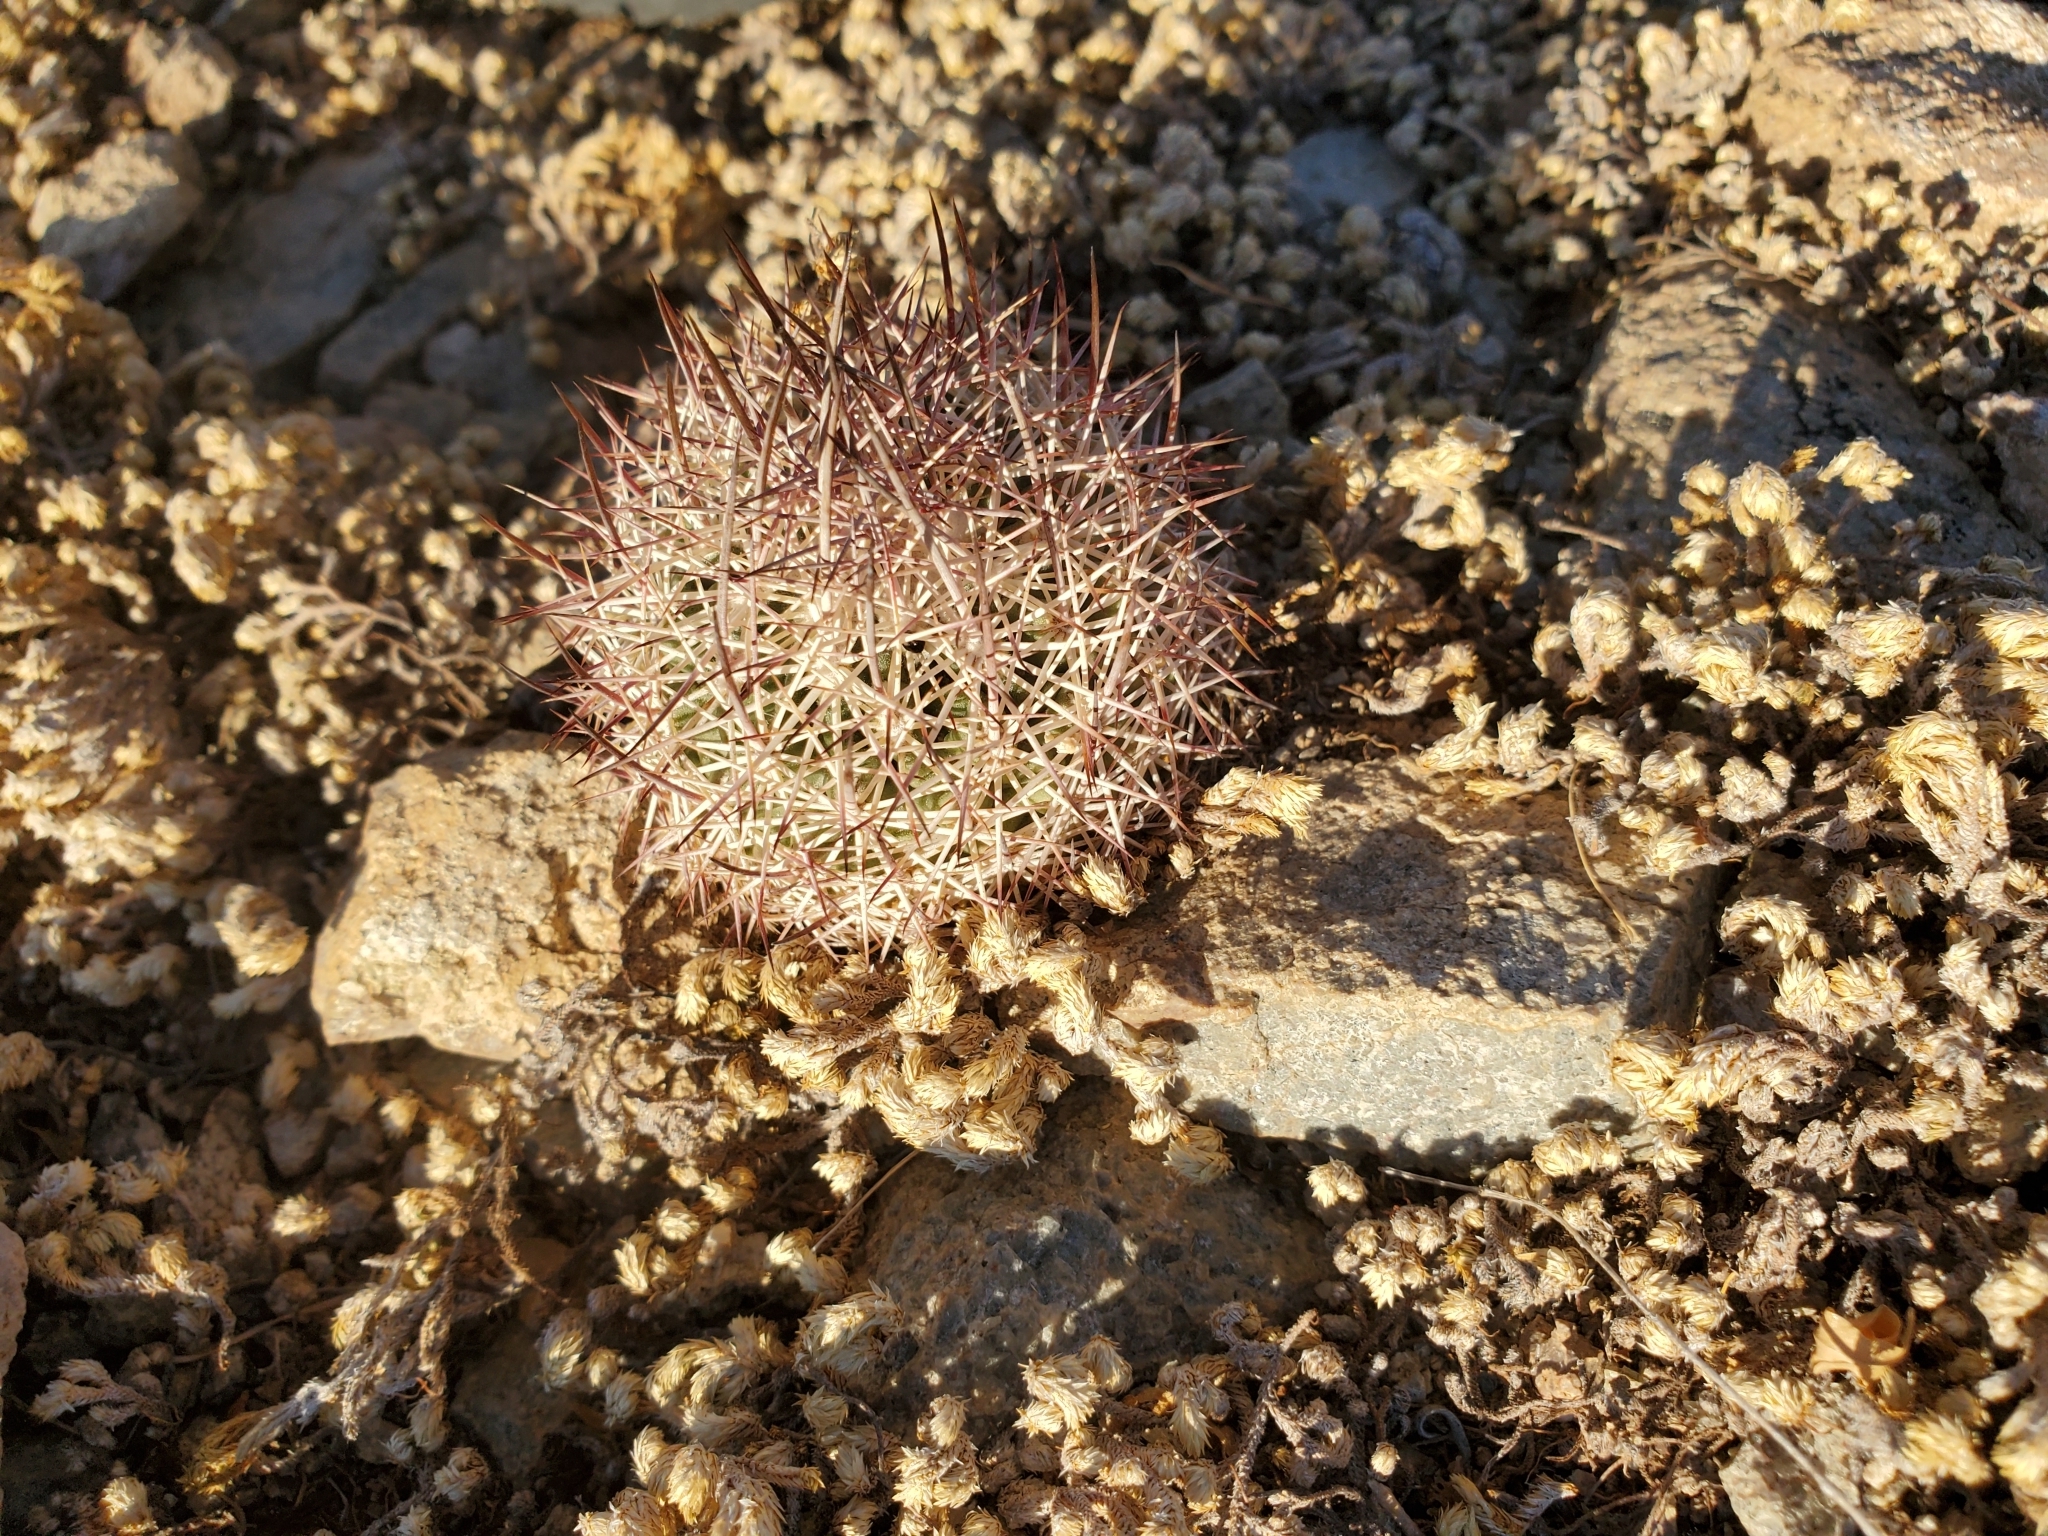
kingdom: Plantae
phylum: Tracheophyta
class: Magnoliopsida
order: Caryophyllales
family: Cactaceae
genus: Sclerocactus
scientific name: Sclerocactus johnsonii
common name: Eight-spine fishhook cactus
